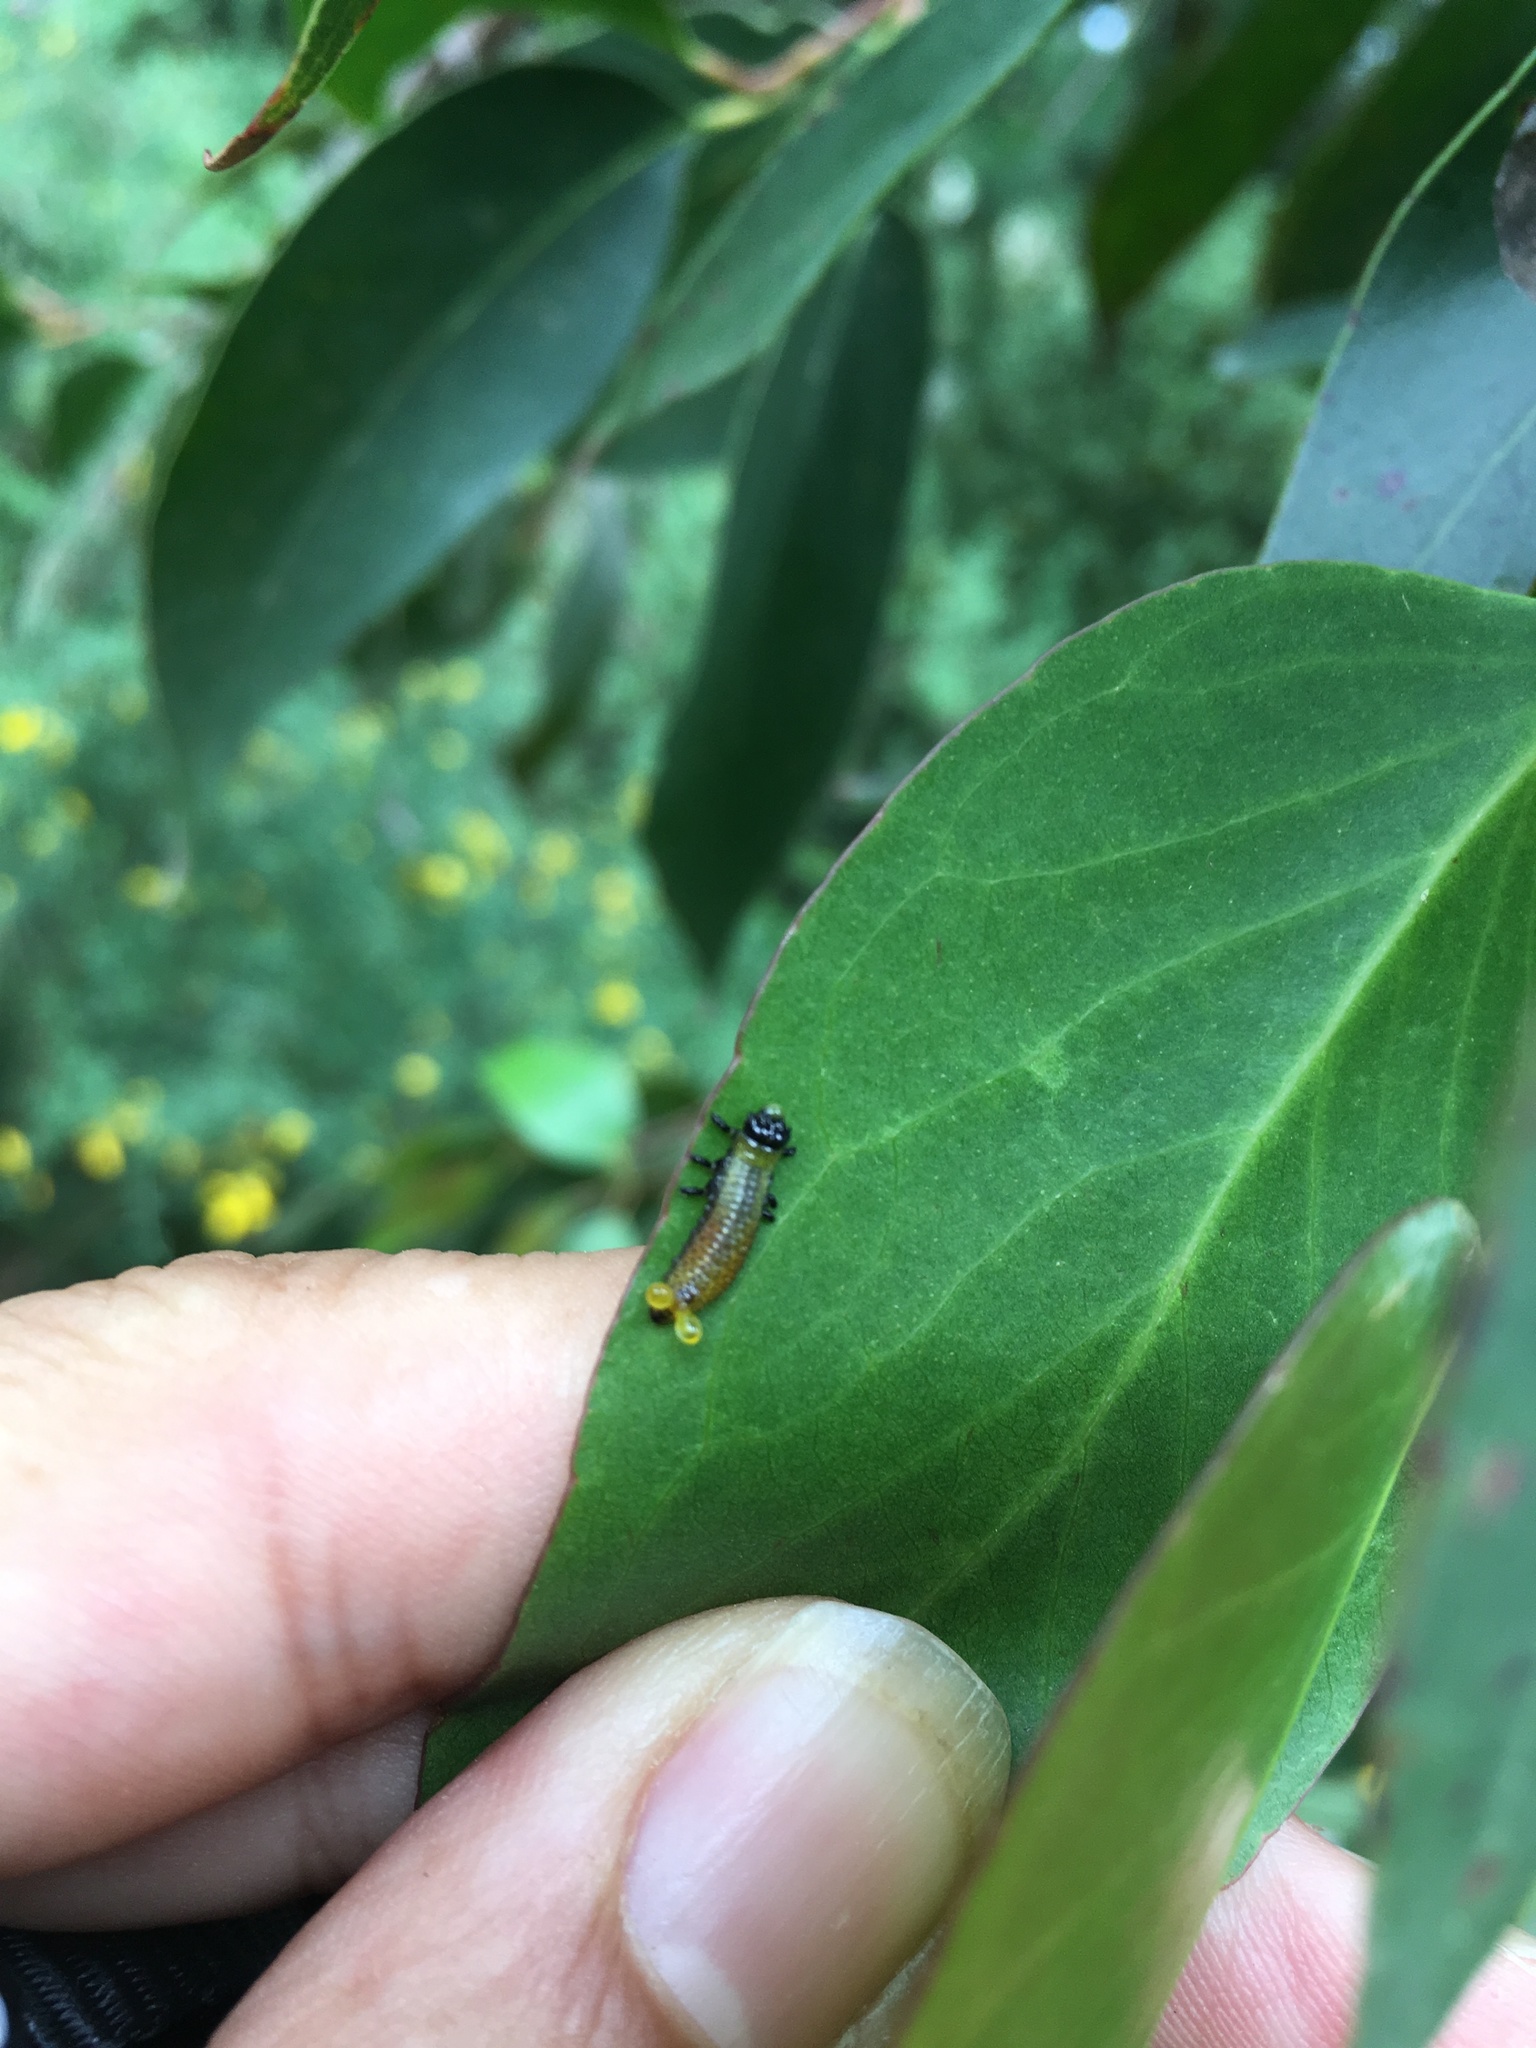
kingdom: Animalia
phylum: Arthropoda
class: Insecta
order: Coleoptera
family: Chrysomelidae
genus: Paropsis
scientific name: Paropsis charybdis
